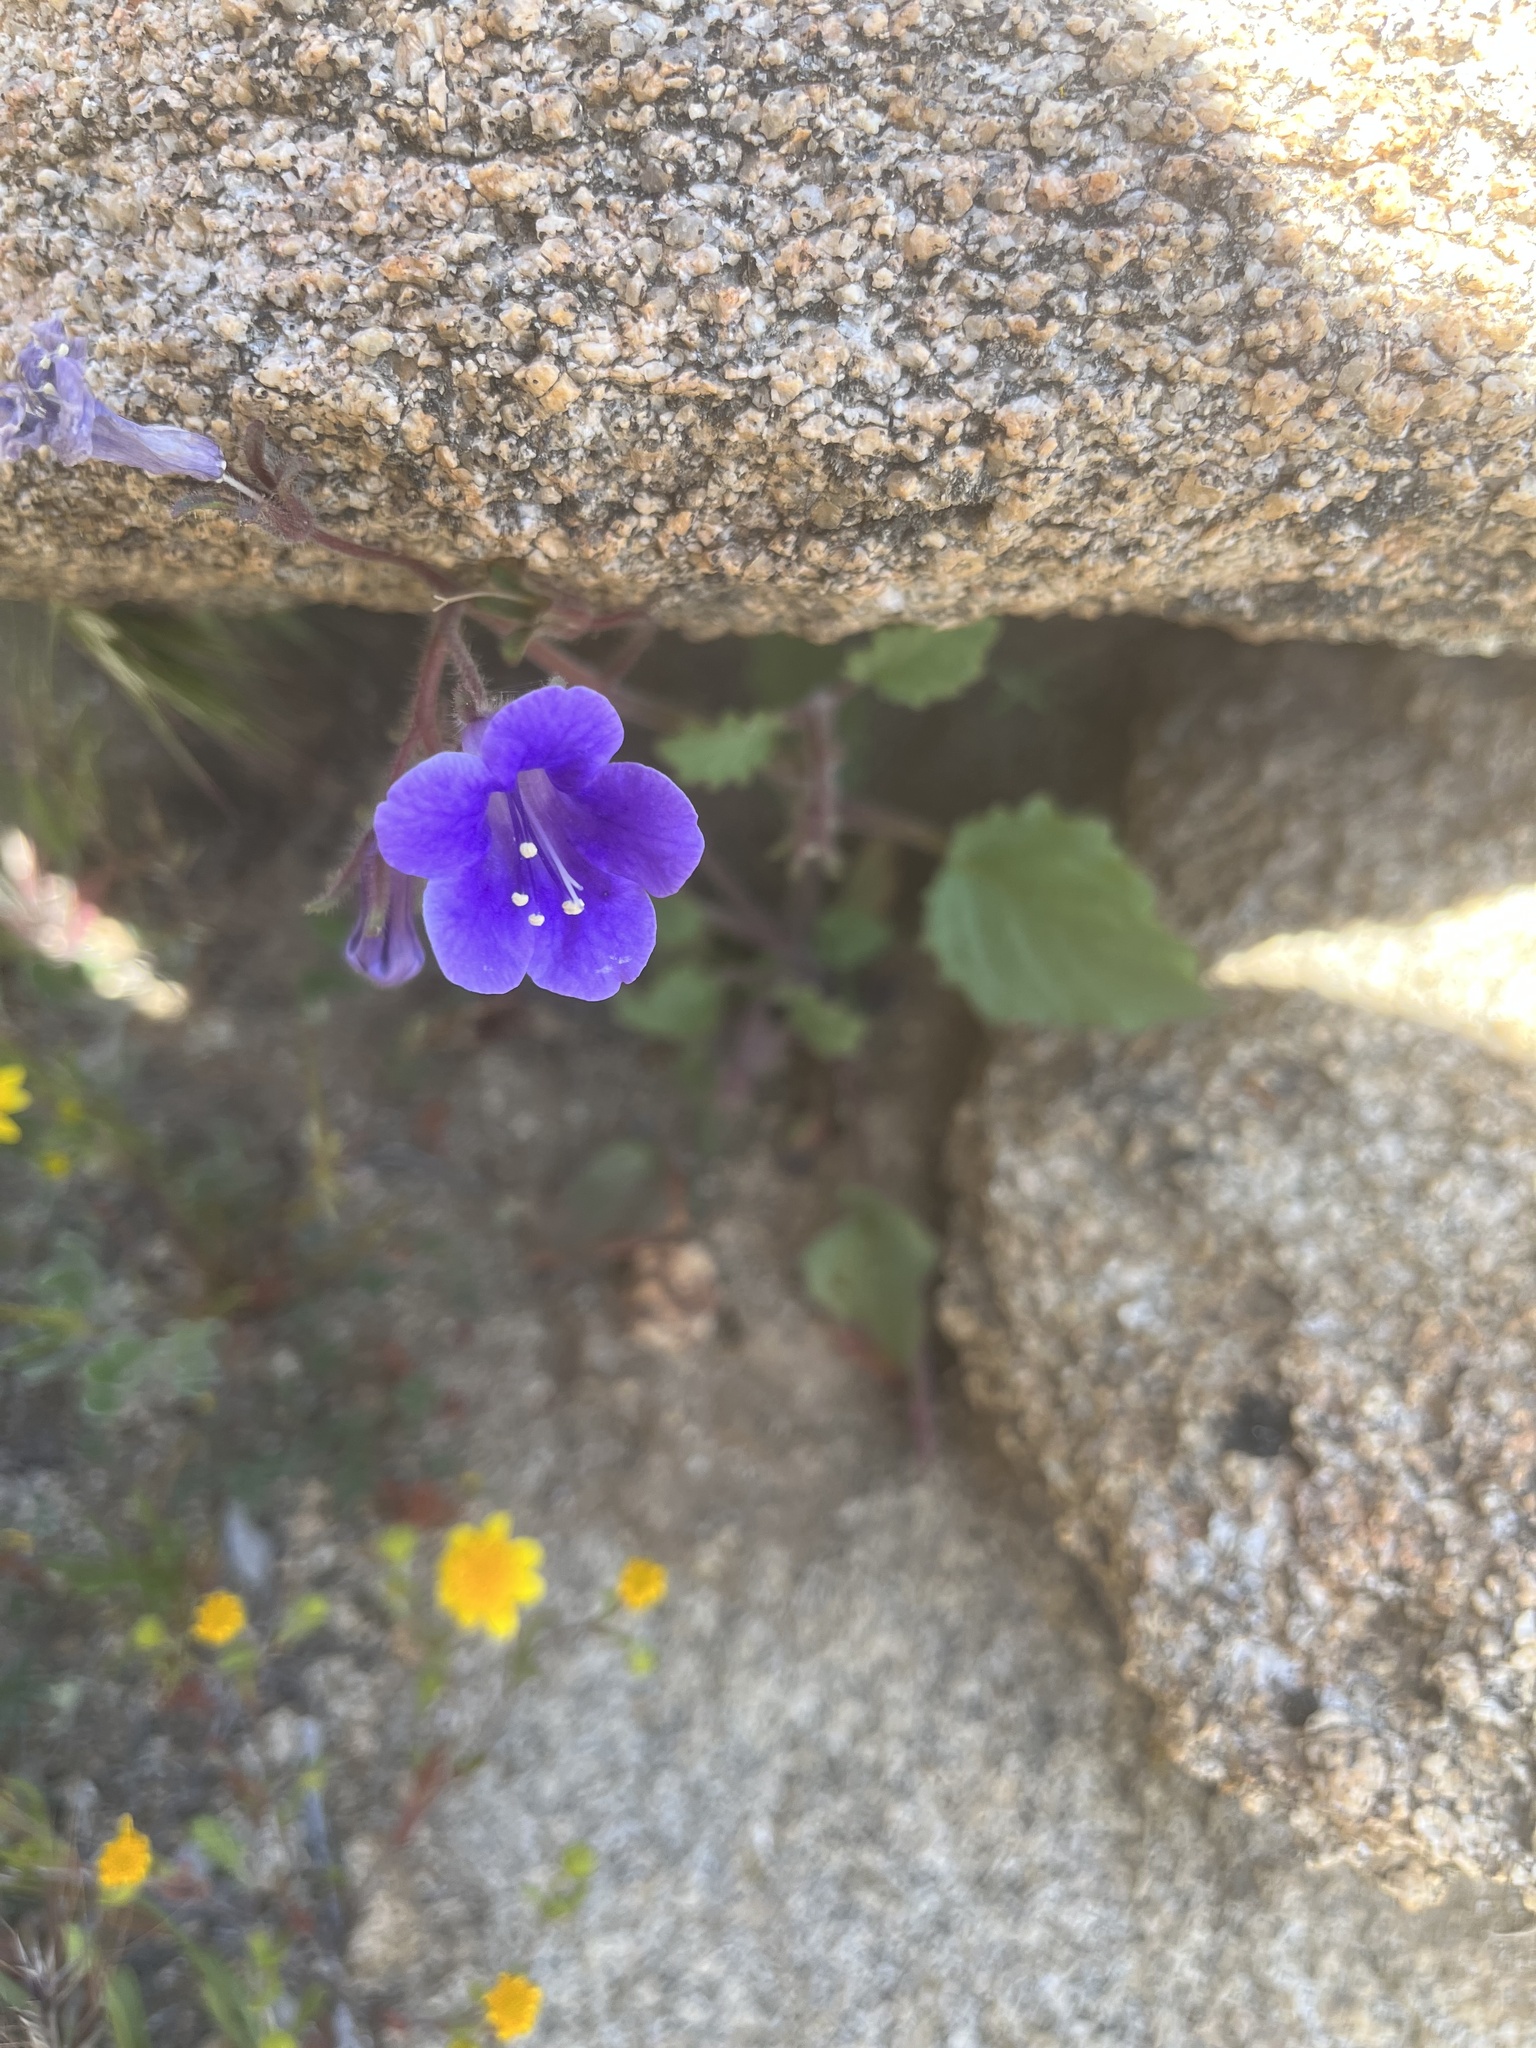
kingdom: Plantae
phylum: Tracheophyta
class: Magnoliopsida
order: Boraginales
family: Hydrophyllaceae
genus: Phacelia
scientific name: Phacelia minor
